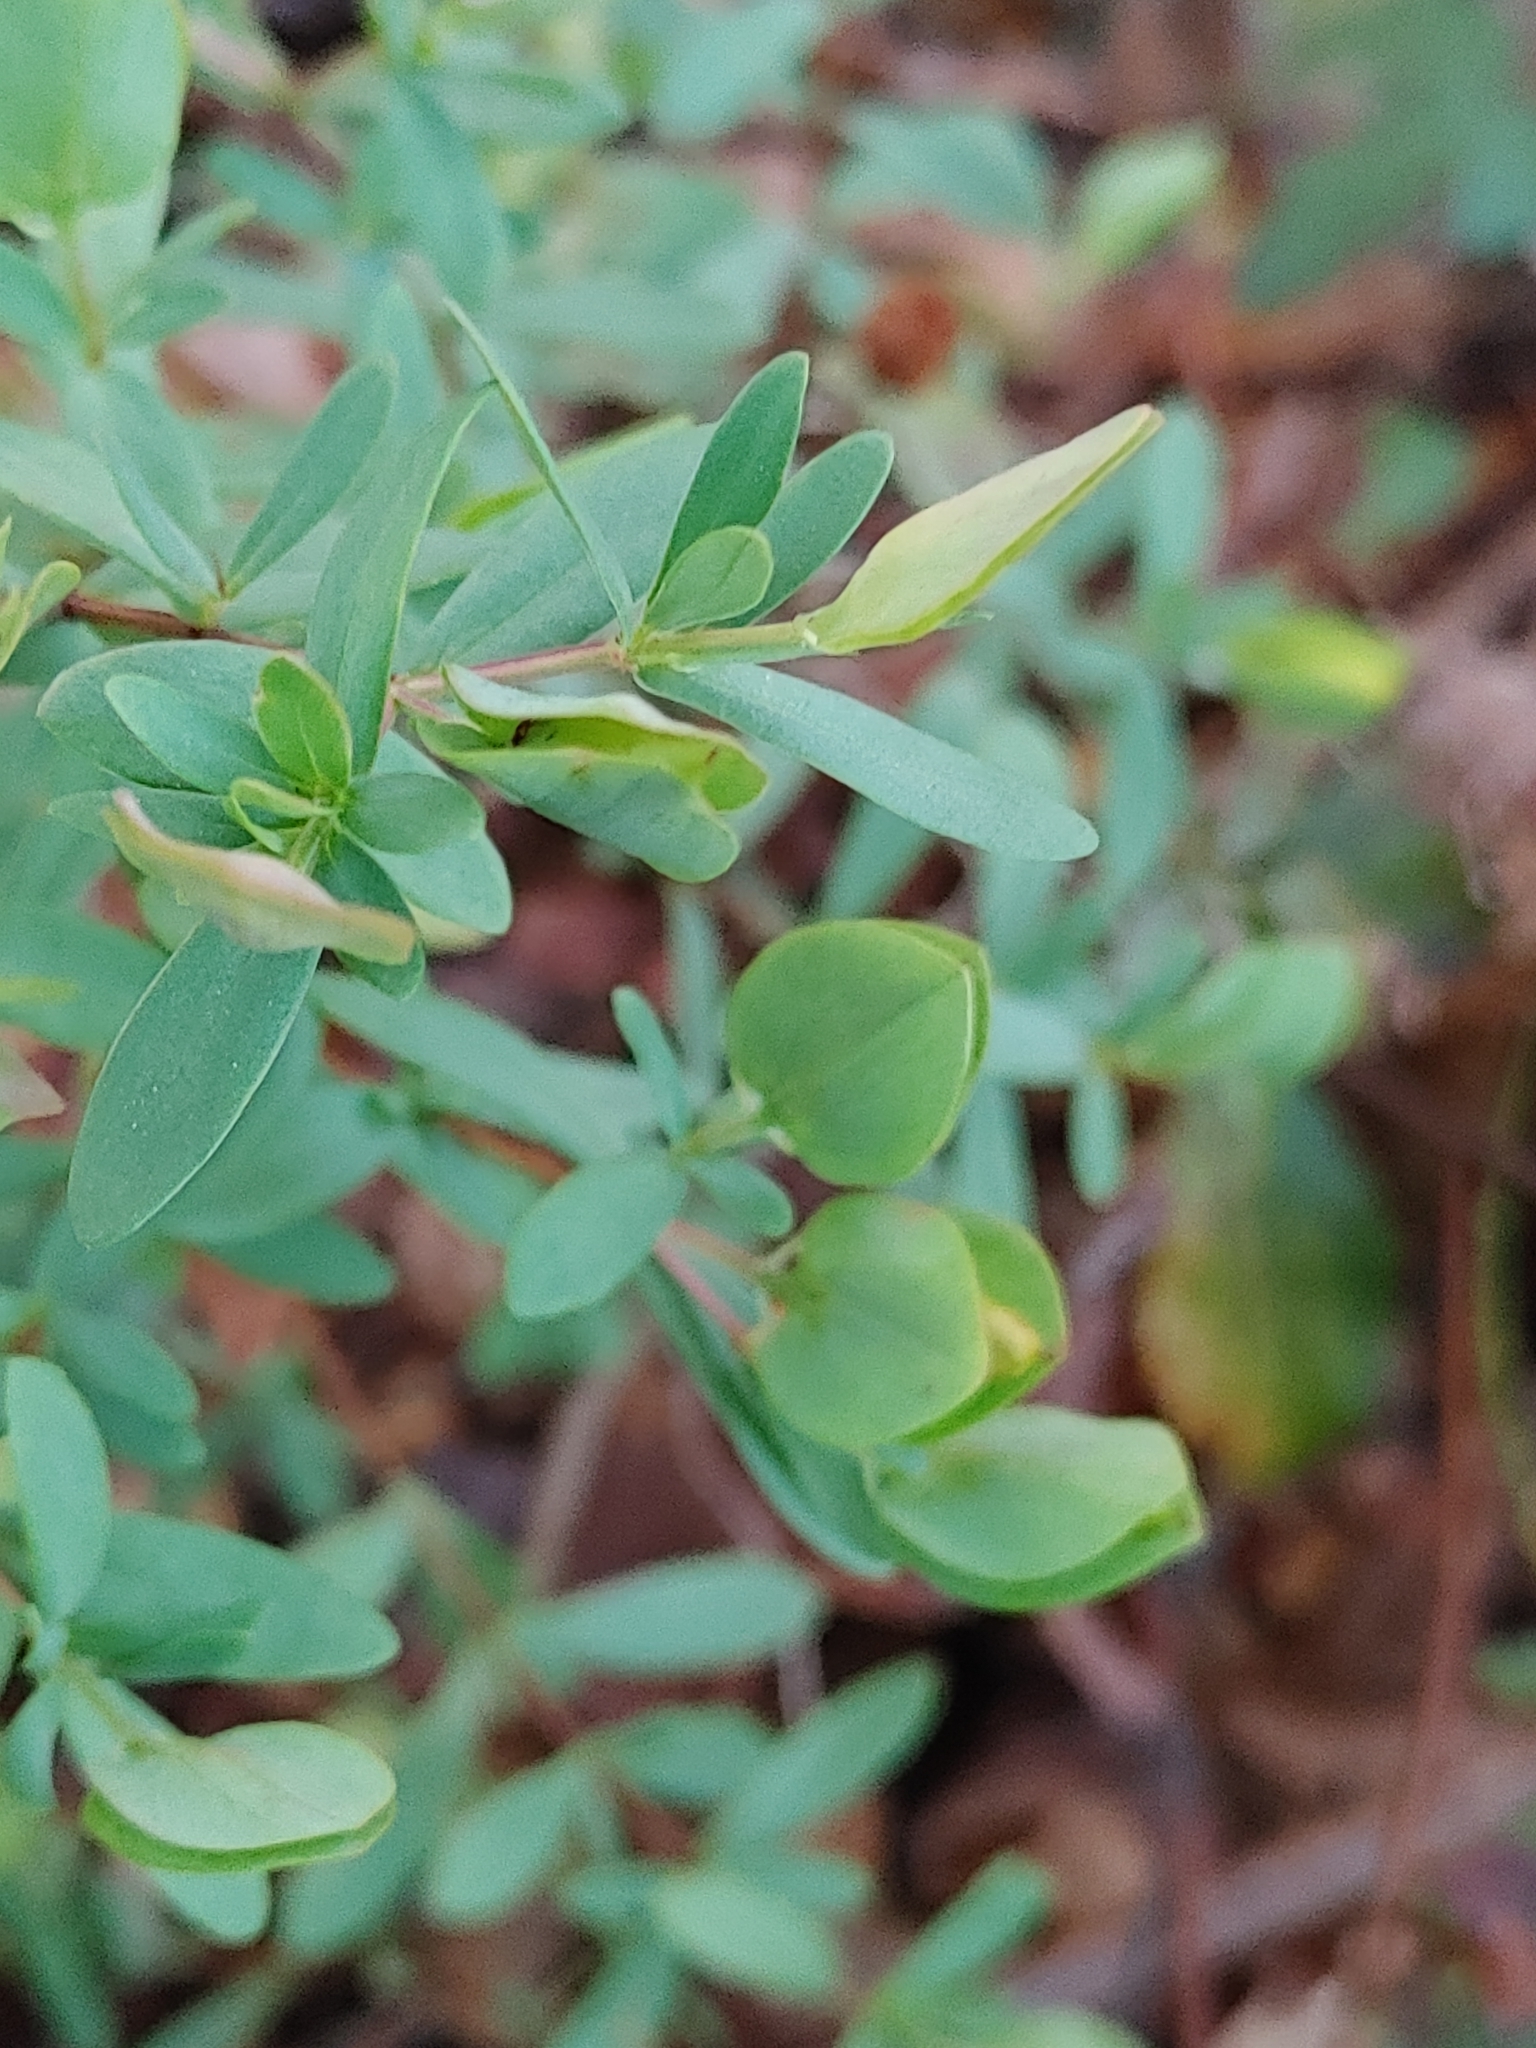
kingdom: Plantae
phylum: Tracheophyta
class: Magnoliopsida
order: Malpighiales
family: Hypericaceae
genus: Hypericum
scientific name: Hypericum hypericoides
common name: St. andrew's cross
